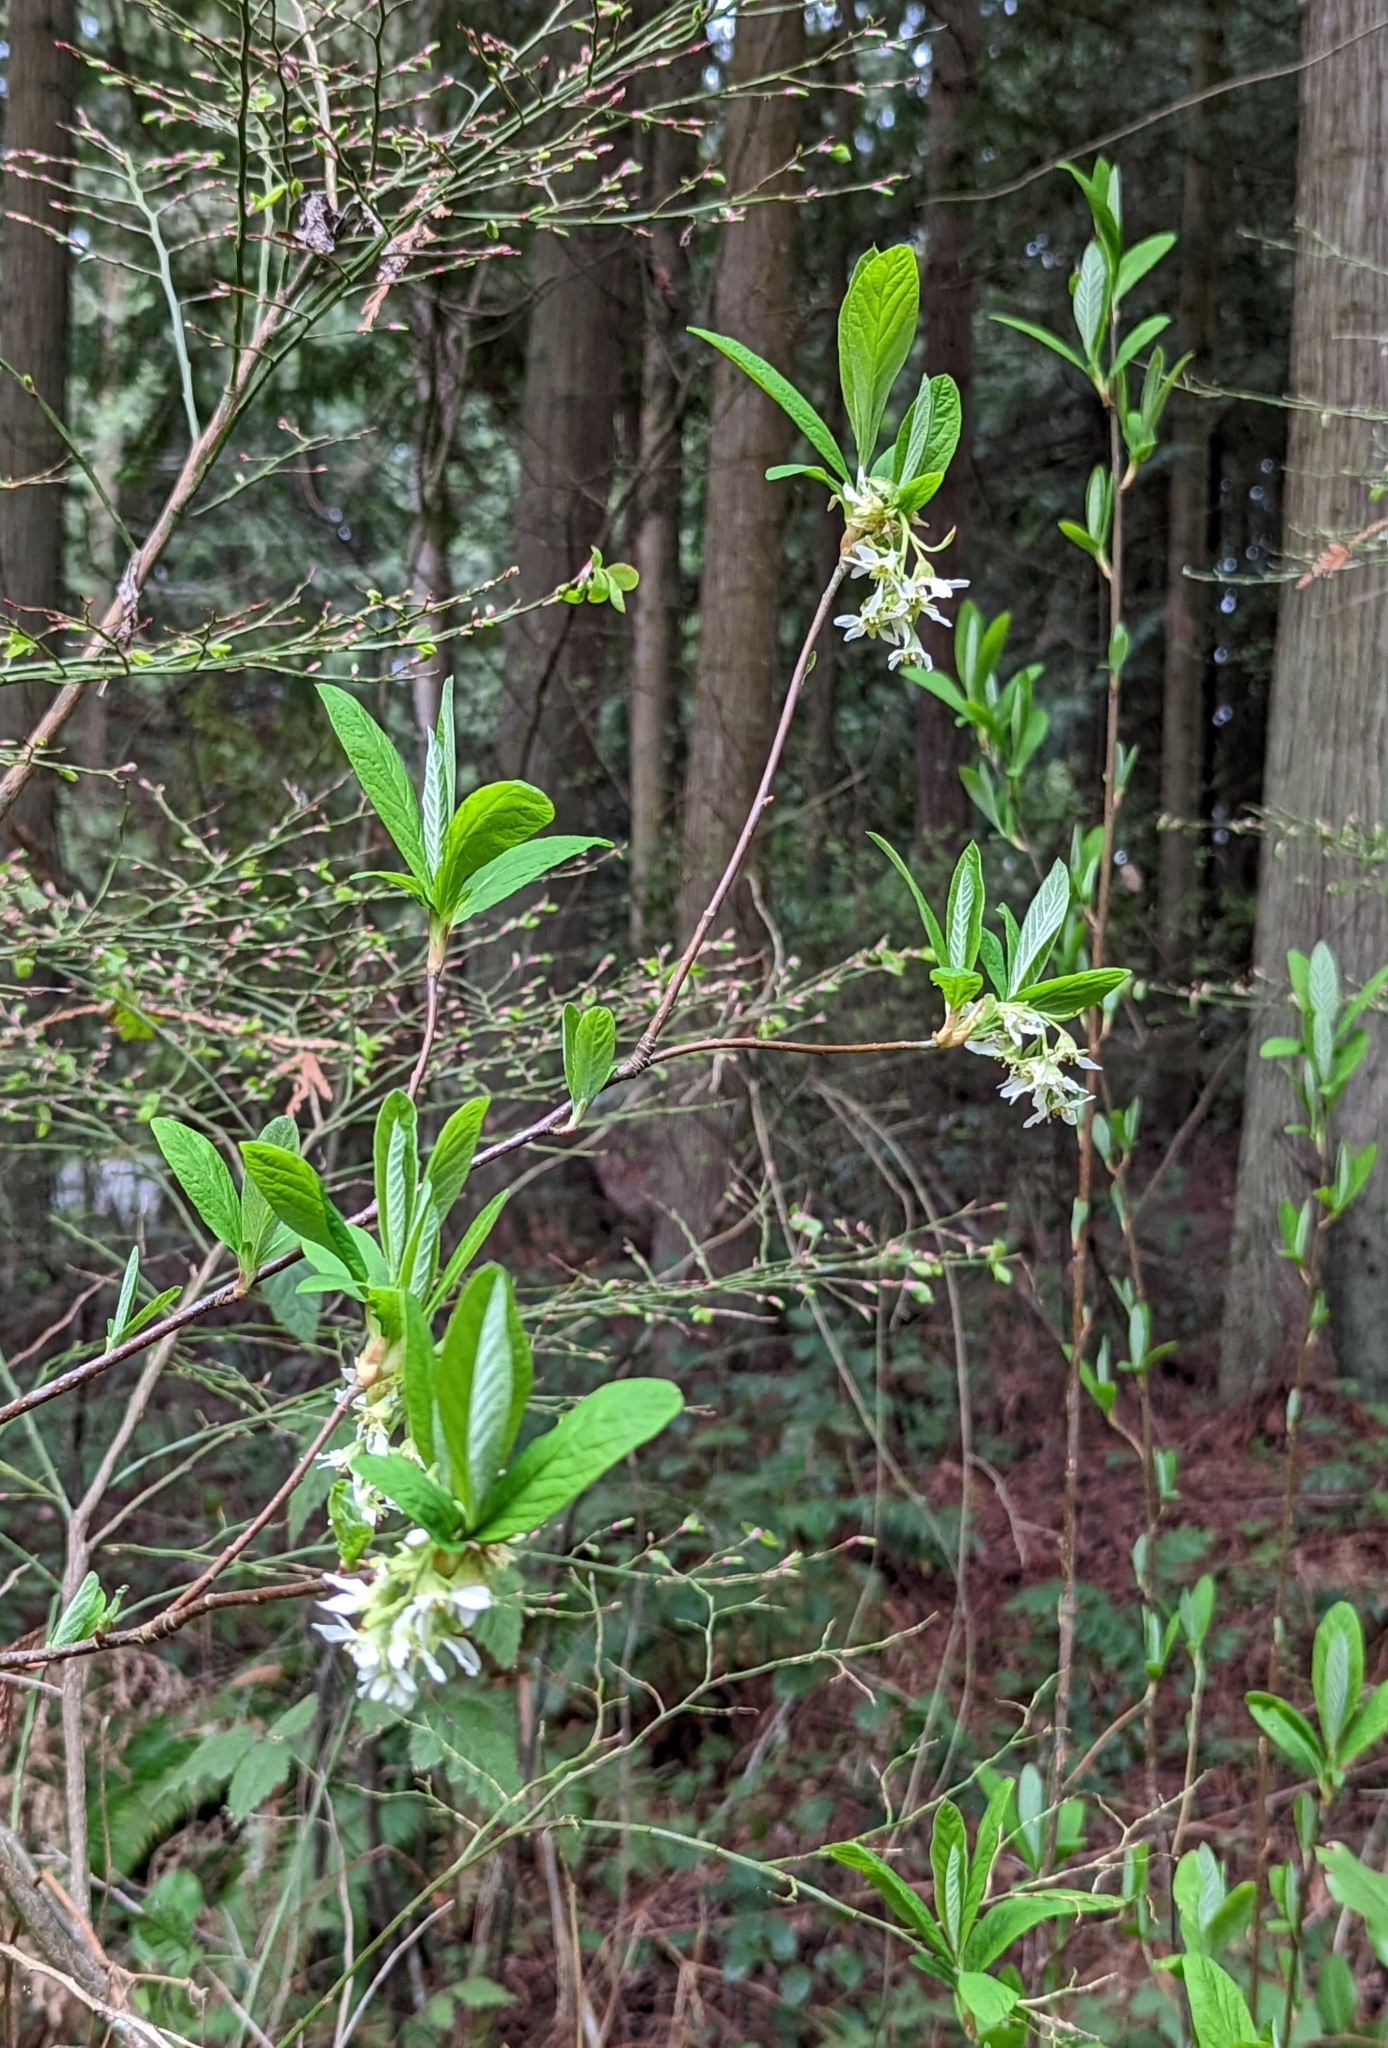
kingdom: Plantae
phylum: Tracheophyta
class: Magnoliopsida
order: Rosales
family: Rosaceae
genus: Oemleria
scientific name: Oemleria cerasiformis
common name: Osoberry
